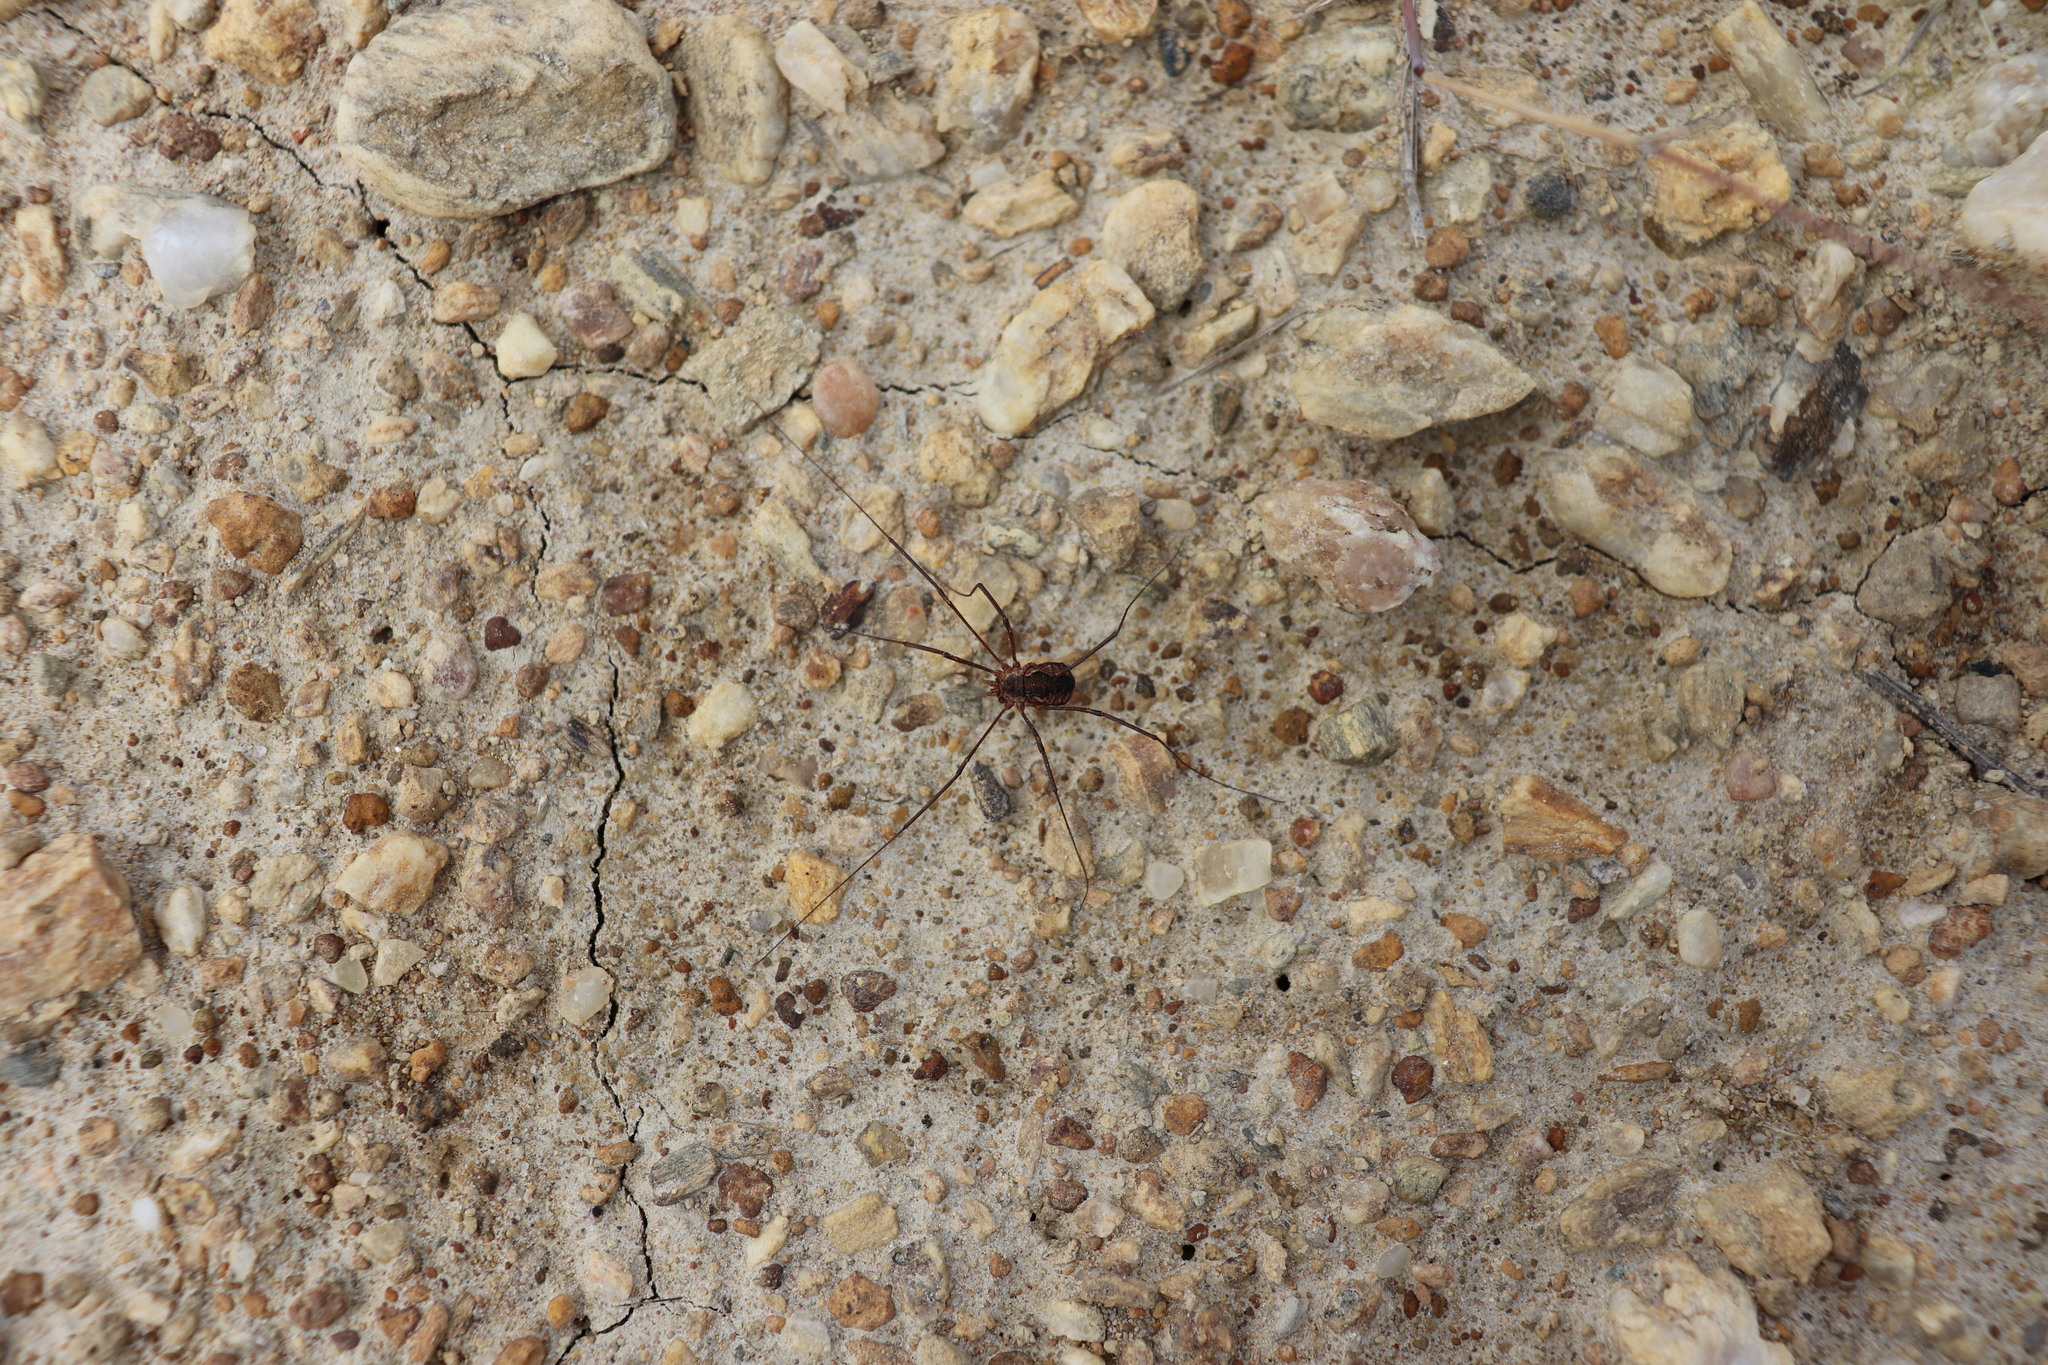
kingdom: Animalia
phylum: Arthropoda
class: Arachnida
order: Opiliones
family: Phalangiidae
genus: Phalangium
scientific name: Phalangium opilio
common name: Daddy longleg
